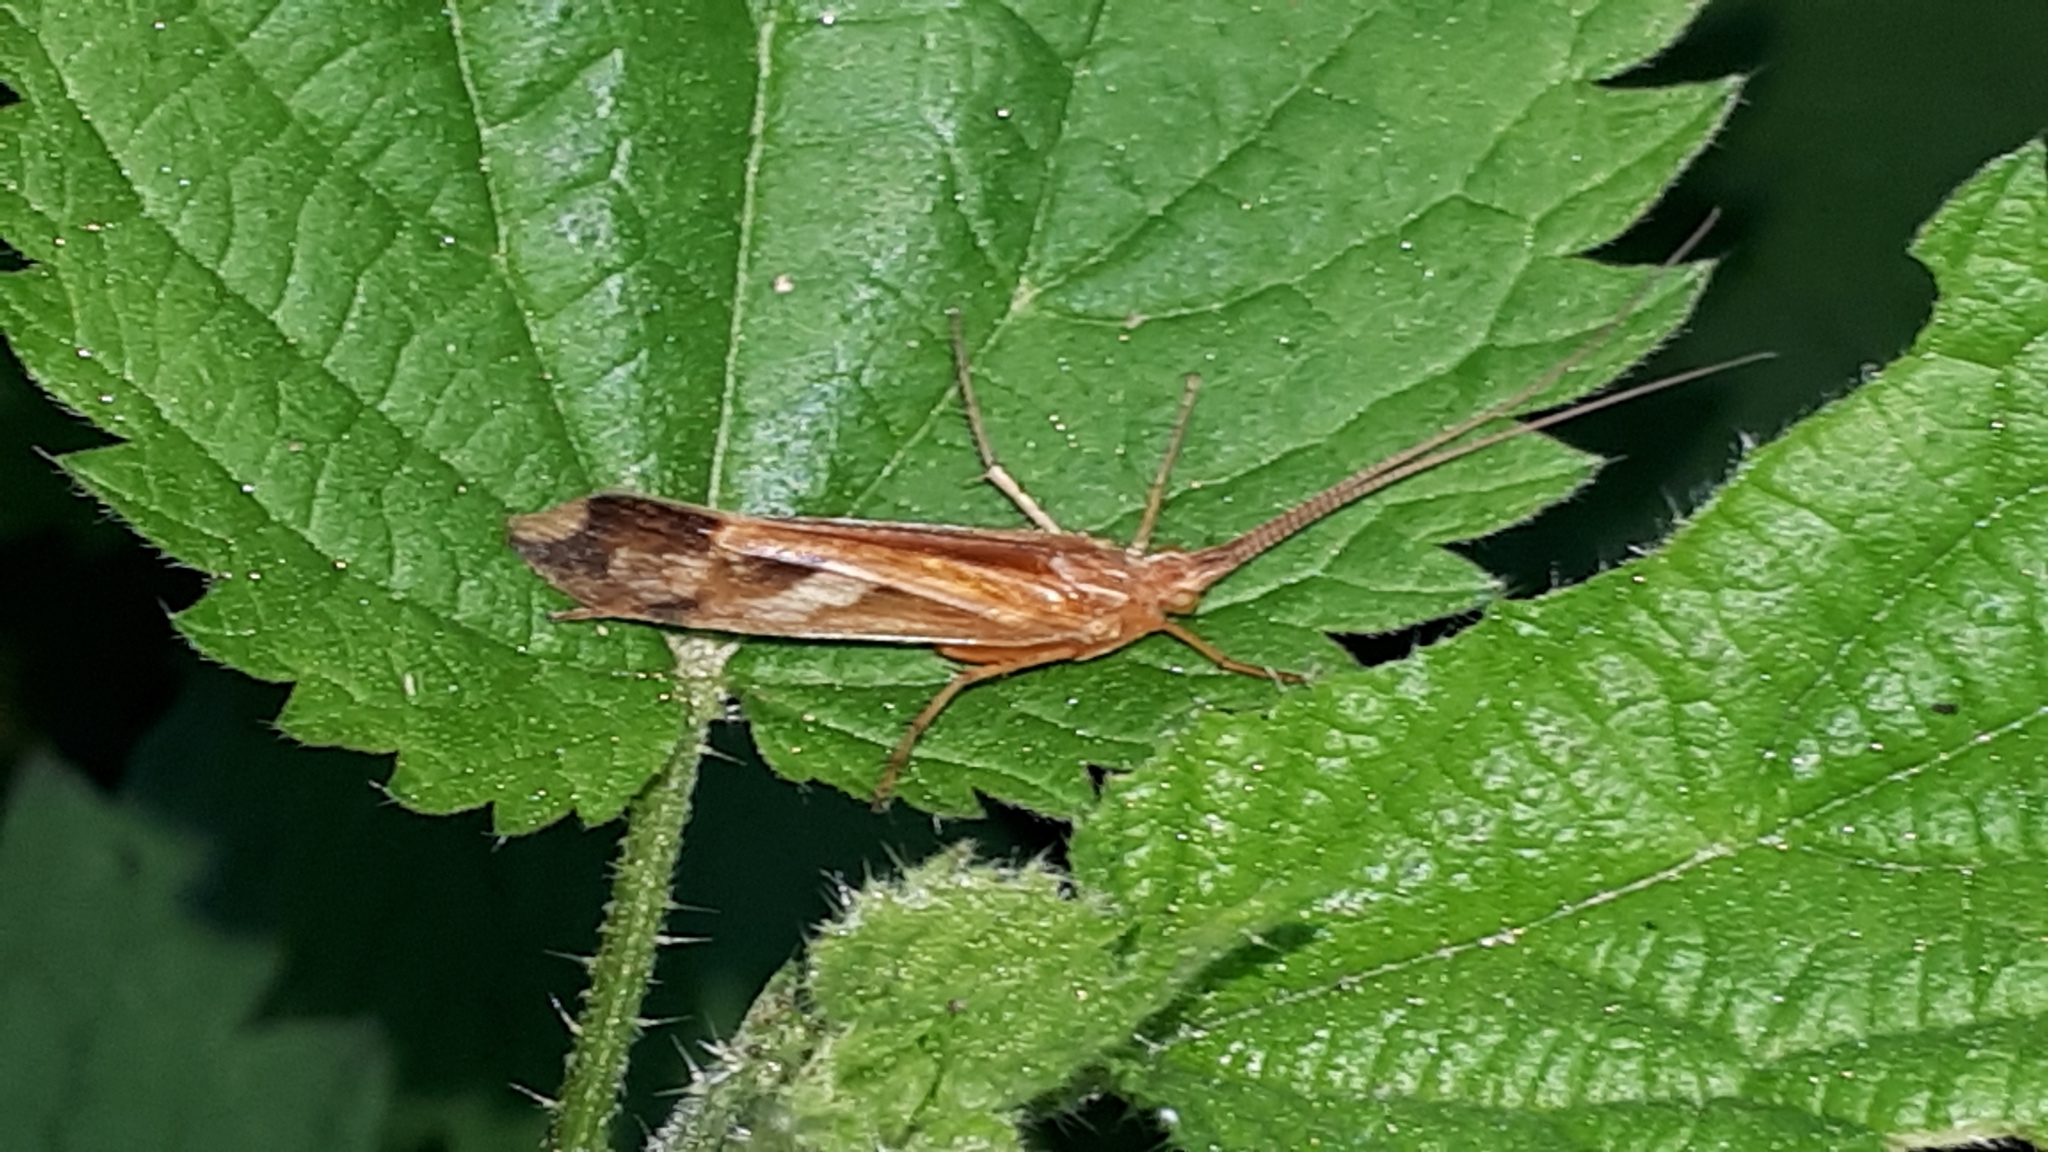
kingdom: Animalia
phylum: Arthropoda
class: Insecta
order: Trichoptera
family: Limnephilidae
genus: Limnephilus
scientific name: Limnephilus lunatus
